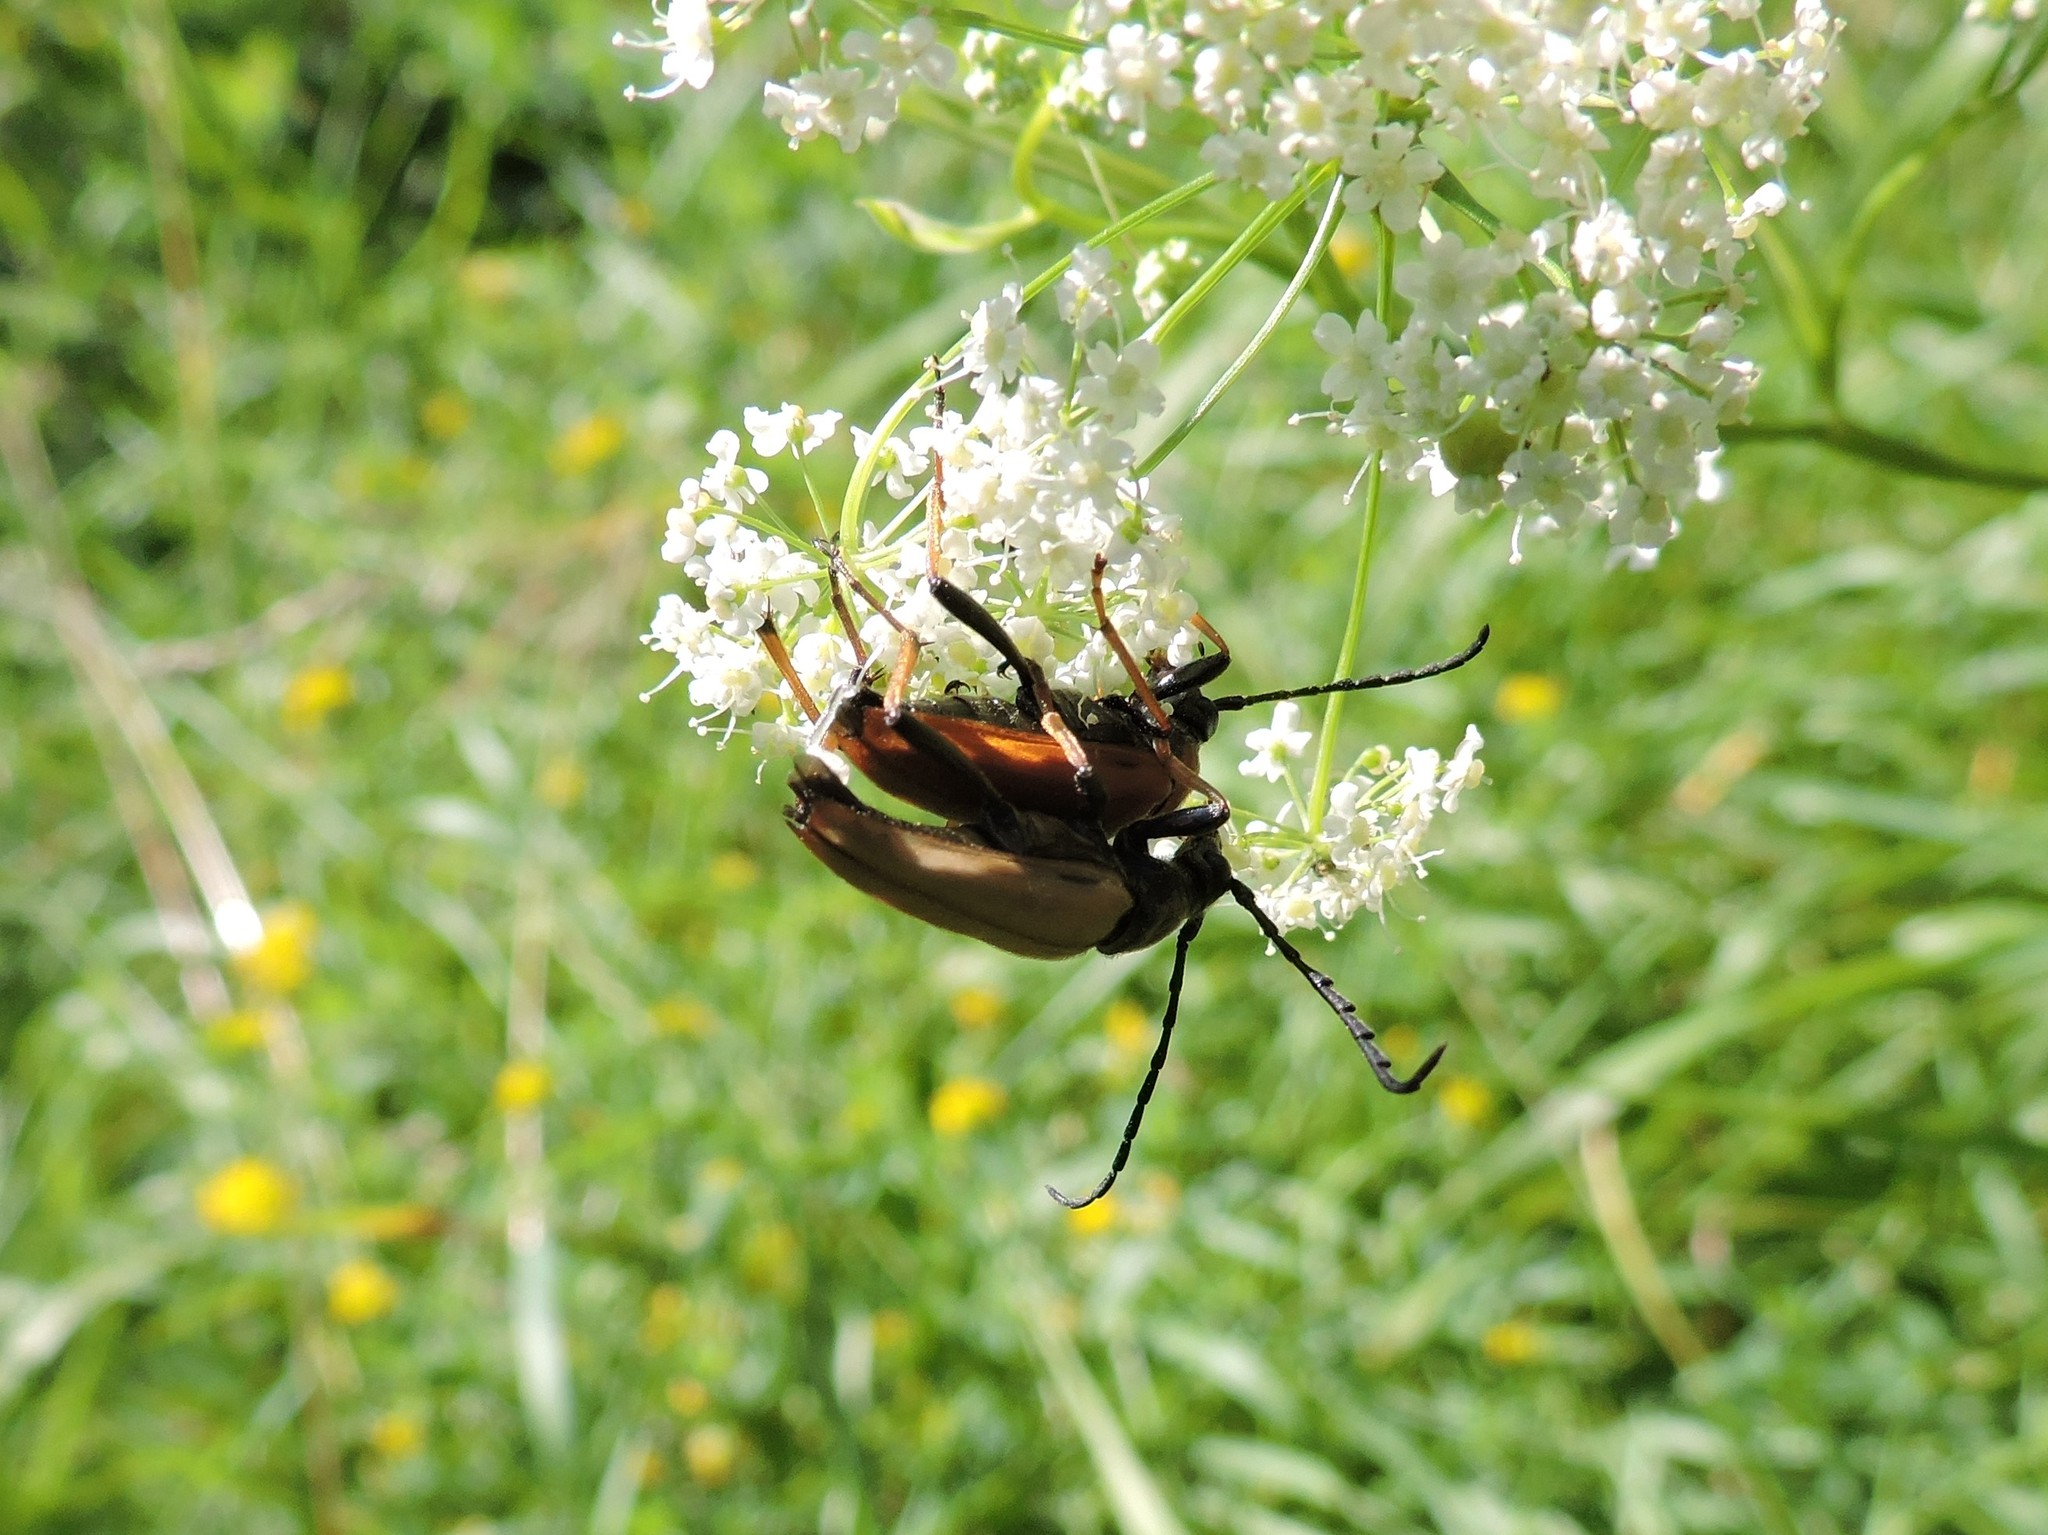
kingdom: Animalia
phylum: Arthropoda
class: Insecta
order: Coleoptera
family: Cerambycidae
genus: Stictoleptura
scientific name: Stictoleptura rubra
